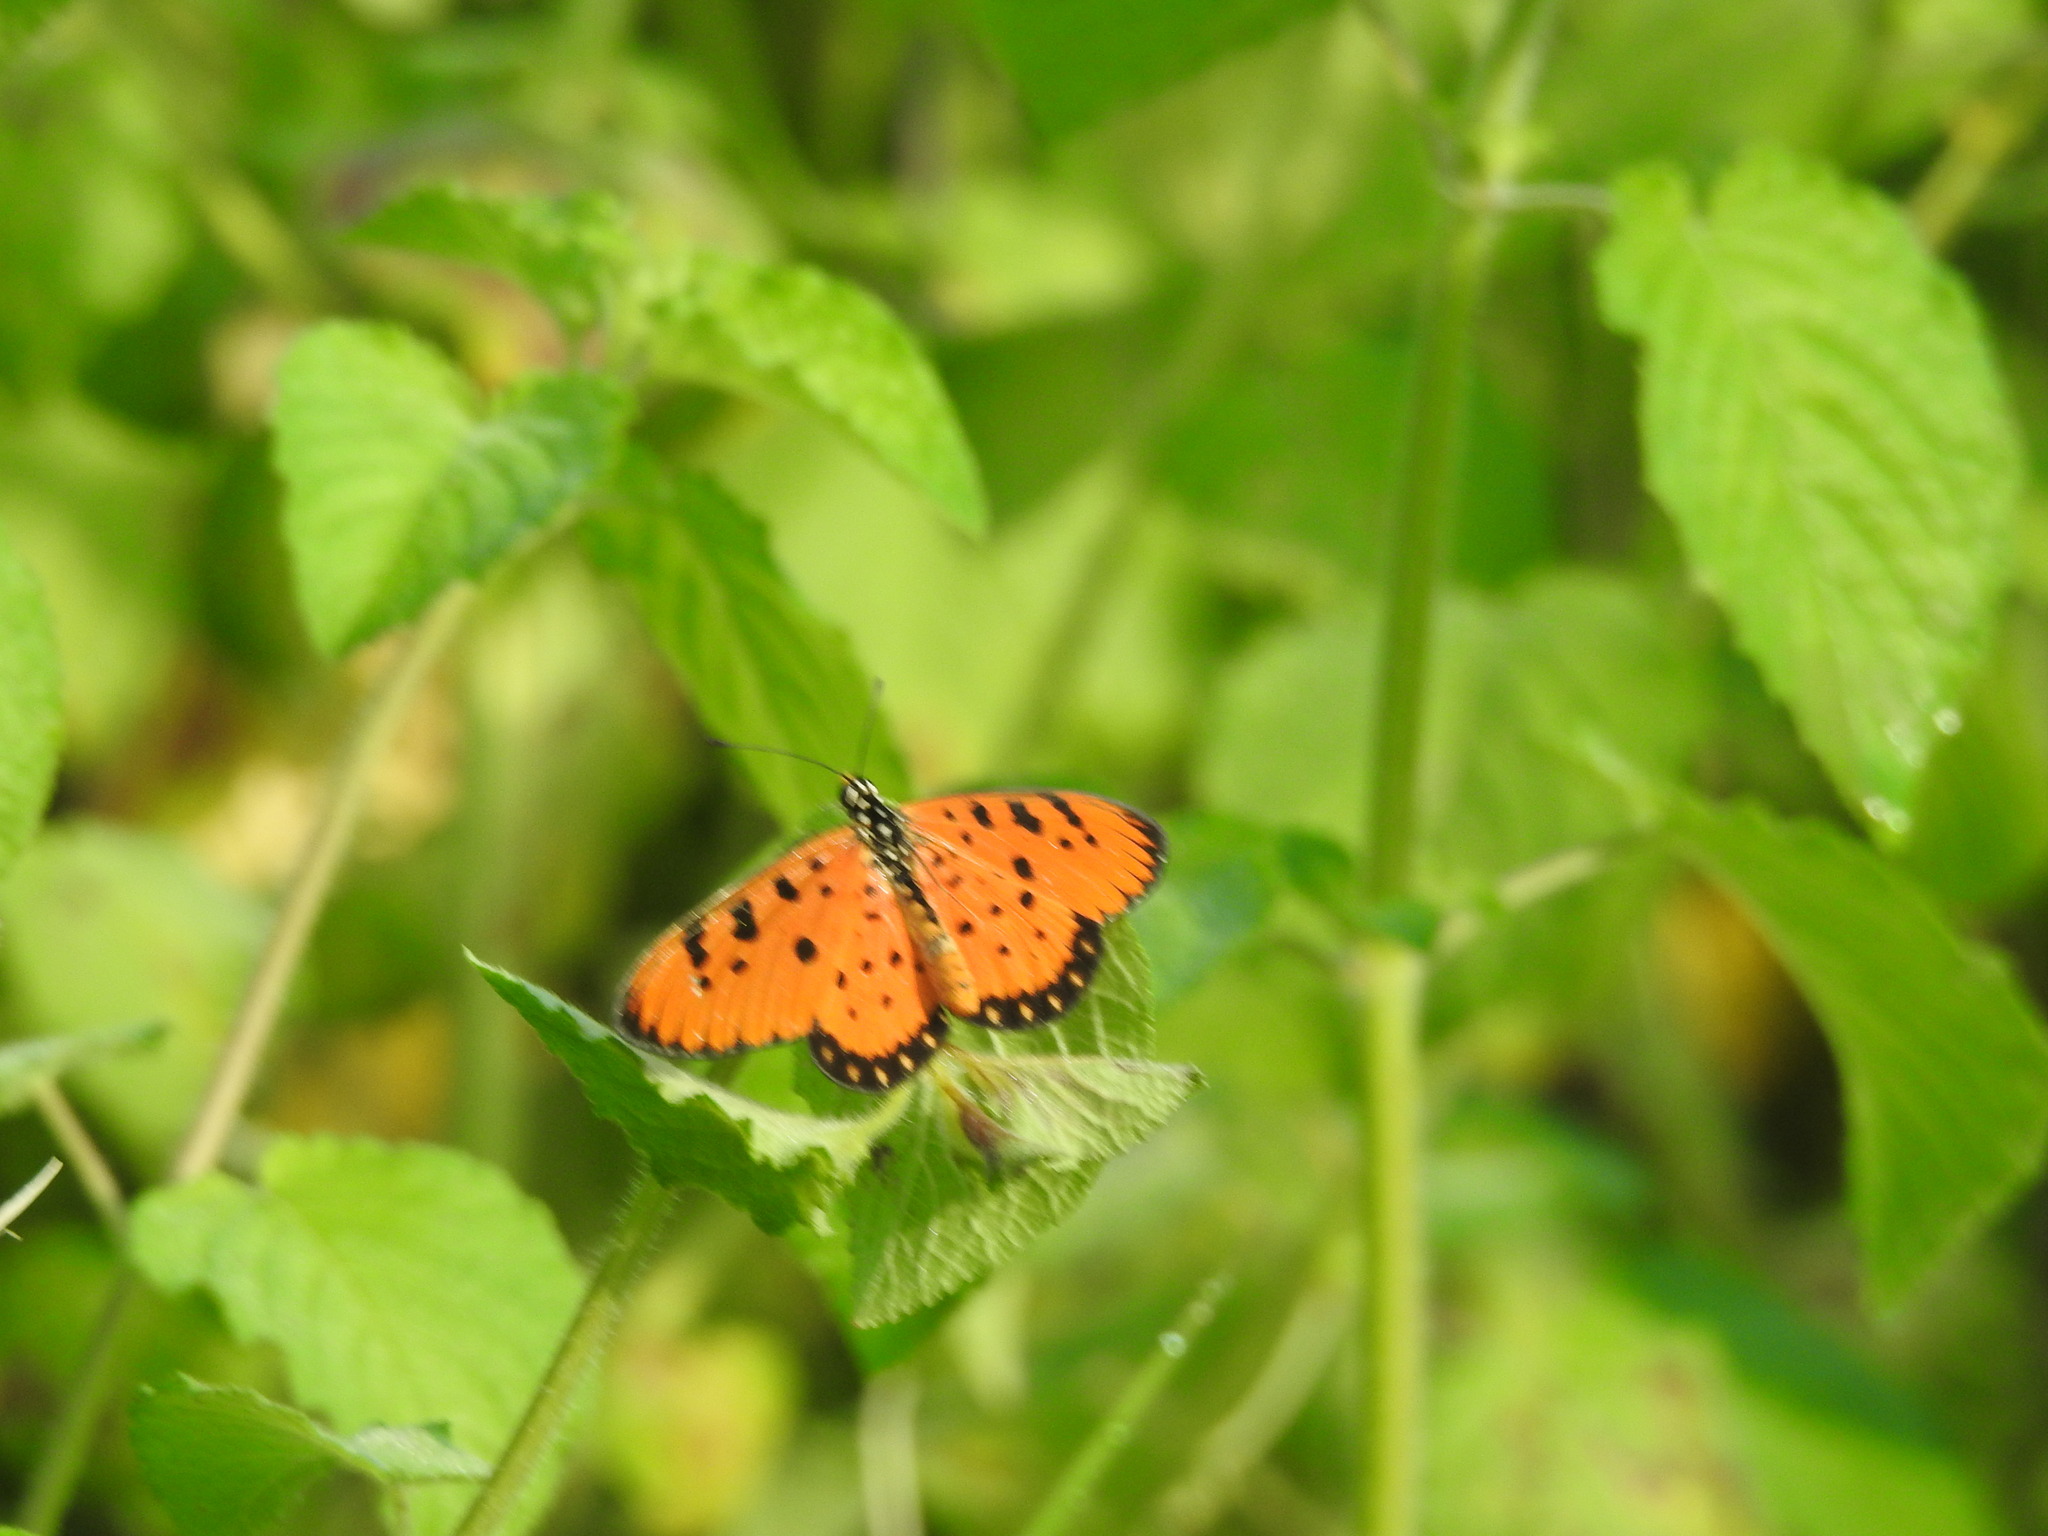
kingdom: Animalia
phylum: Arthropoda
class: Insecta
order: Lepidoptera
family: Nymphalidae
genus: Acraea
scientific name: Acraea terpsicore
